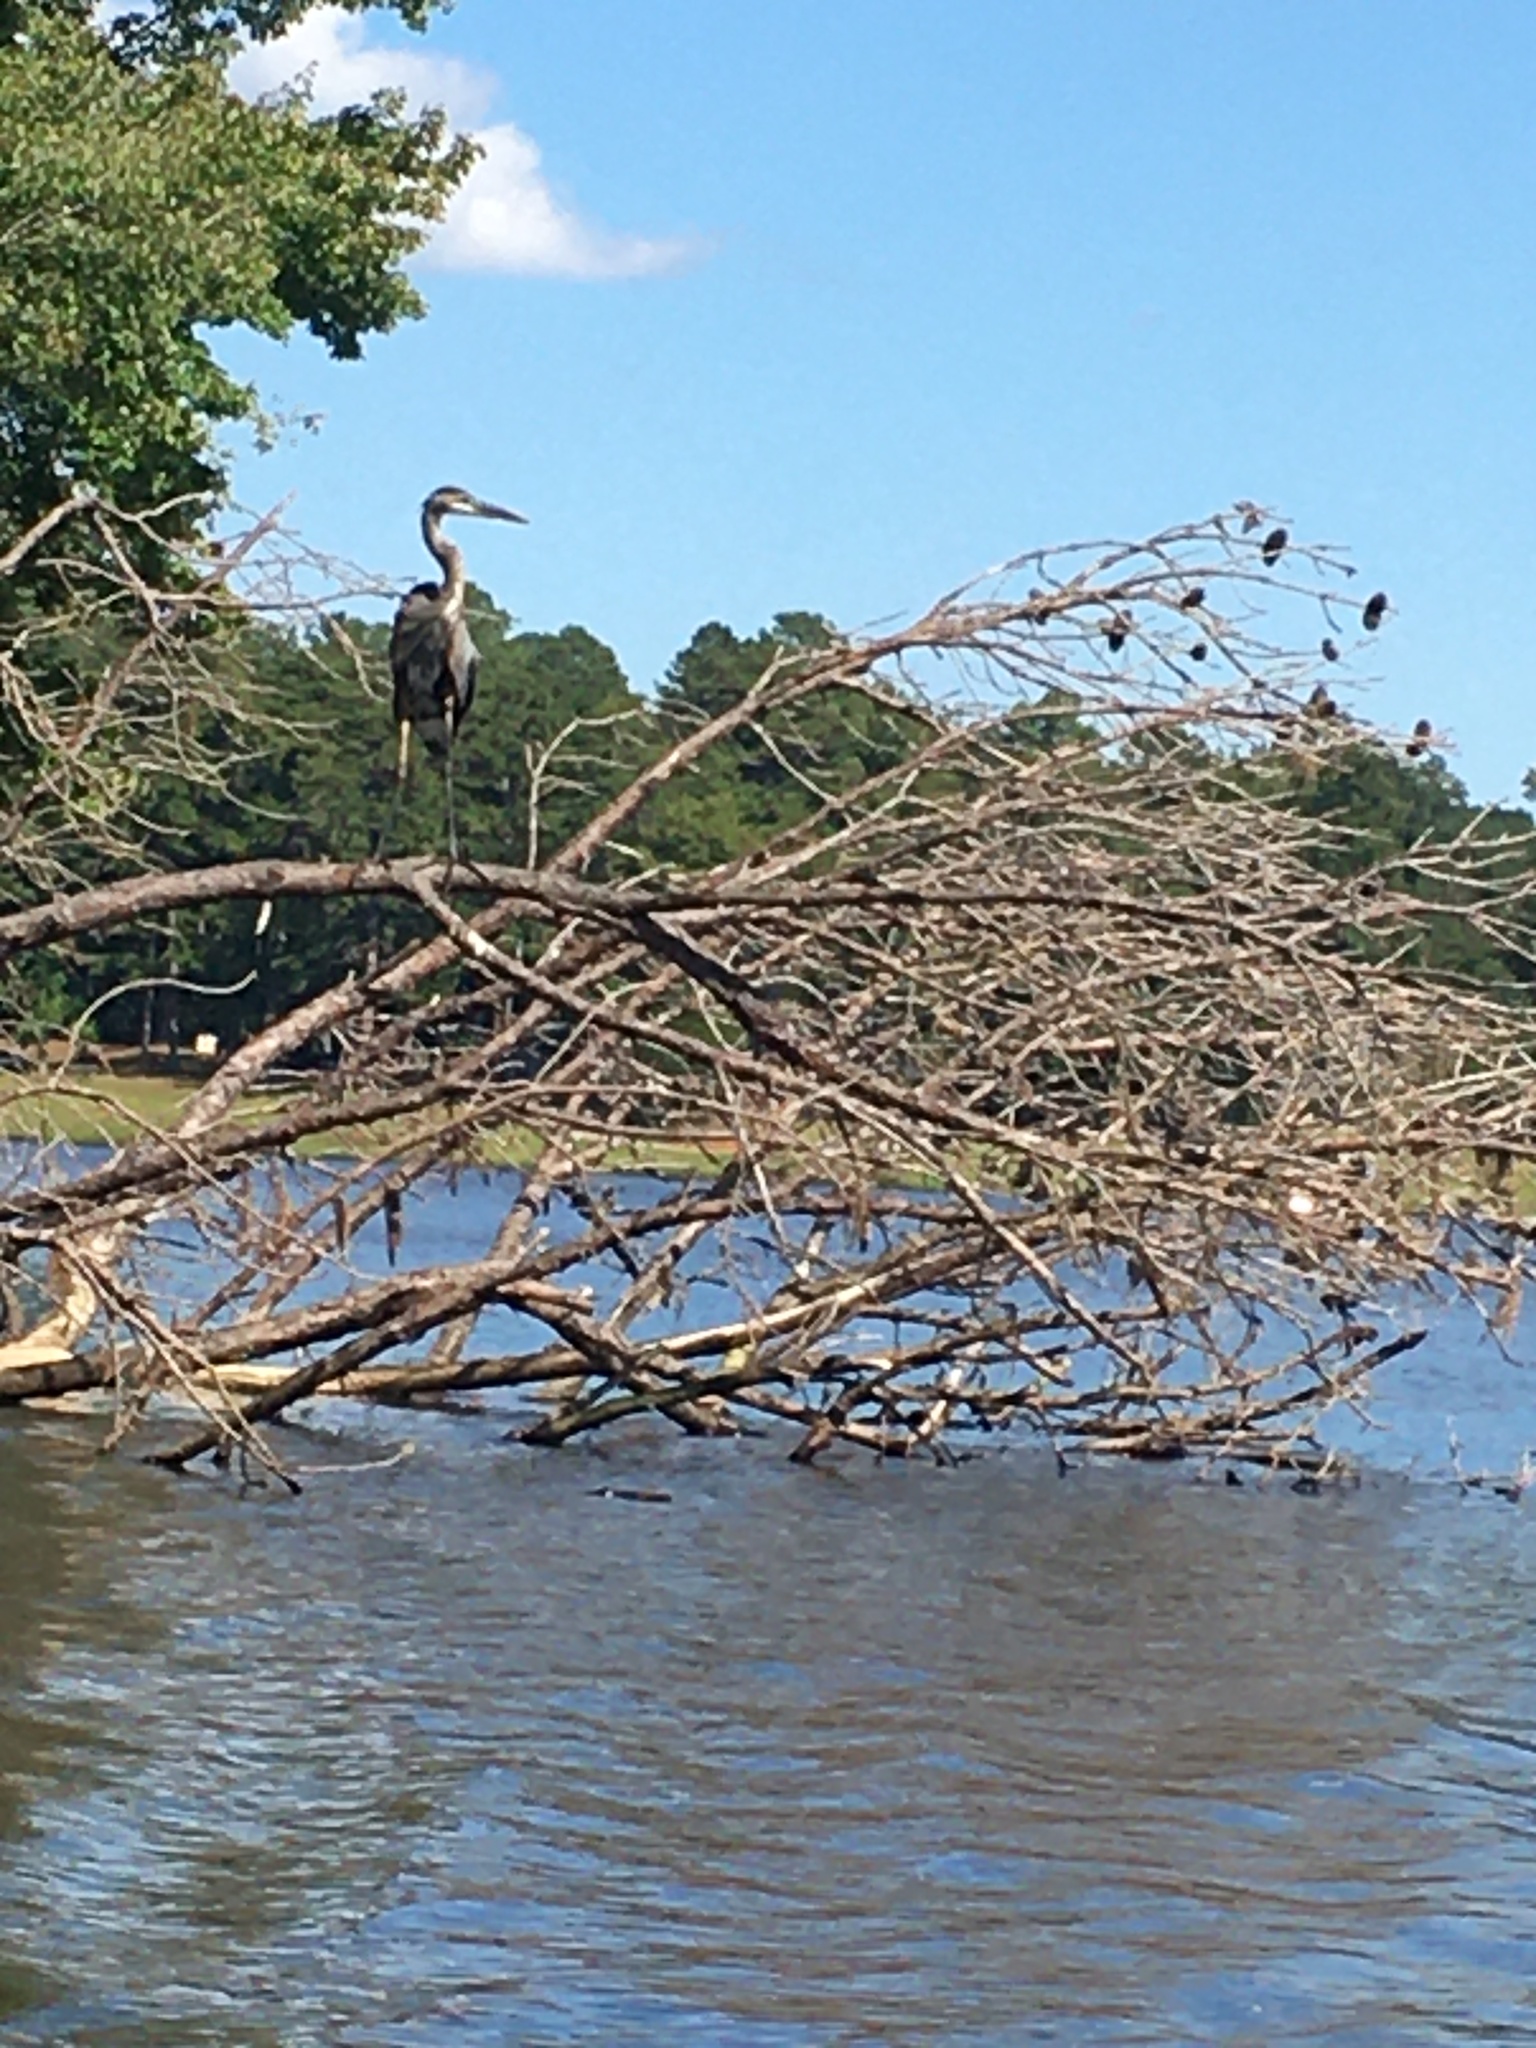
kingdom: Animalia
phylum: Chordata
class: Aves
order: Pelecaniformes
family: Ardeidae
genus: Ardea
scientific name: Ardea herodias
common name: Great blue heron
